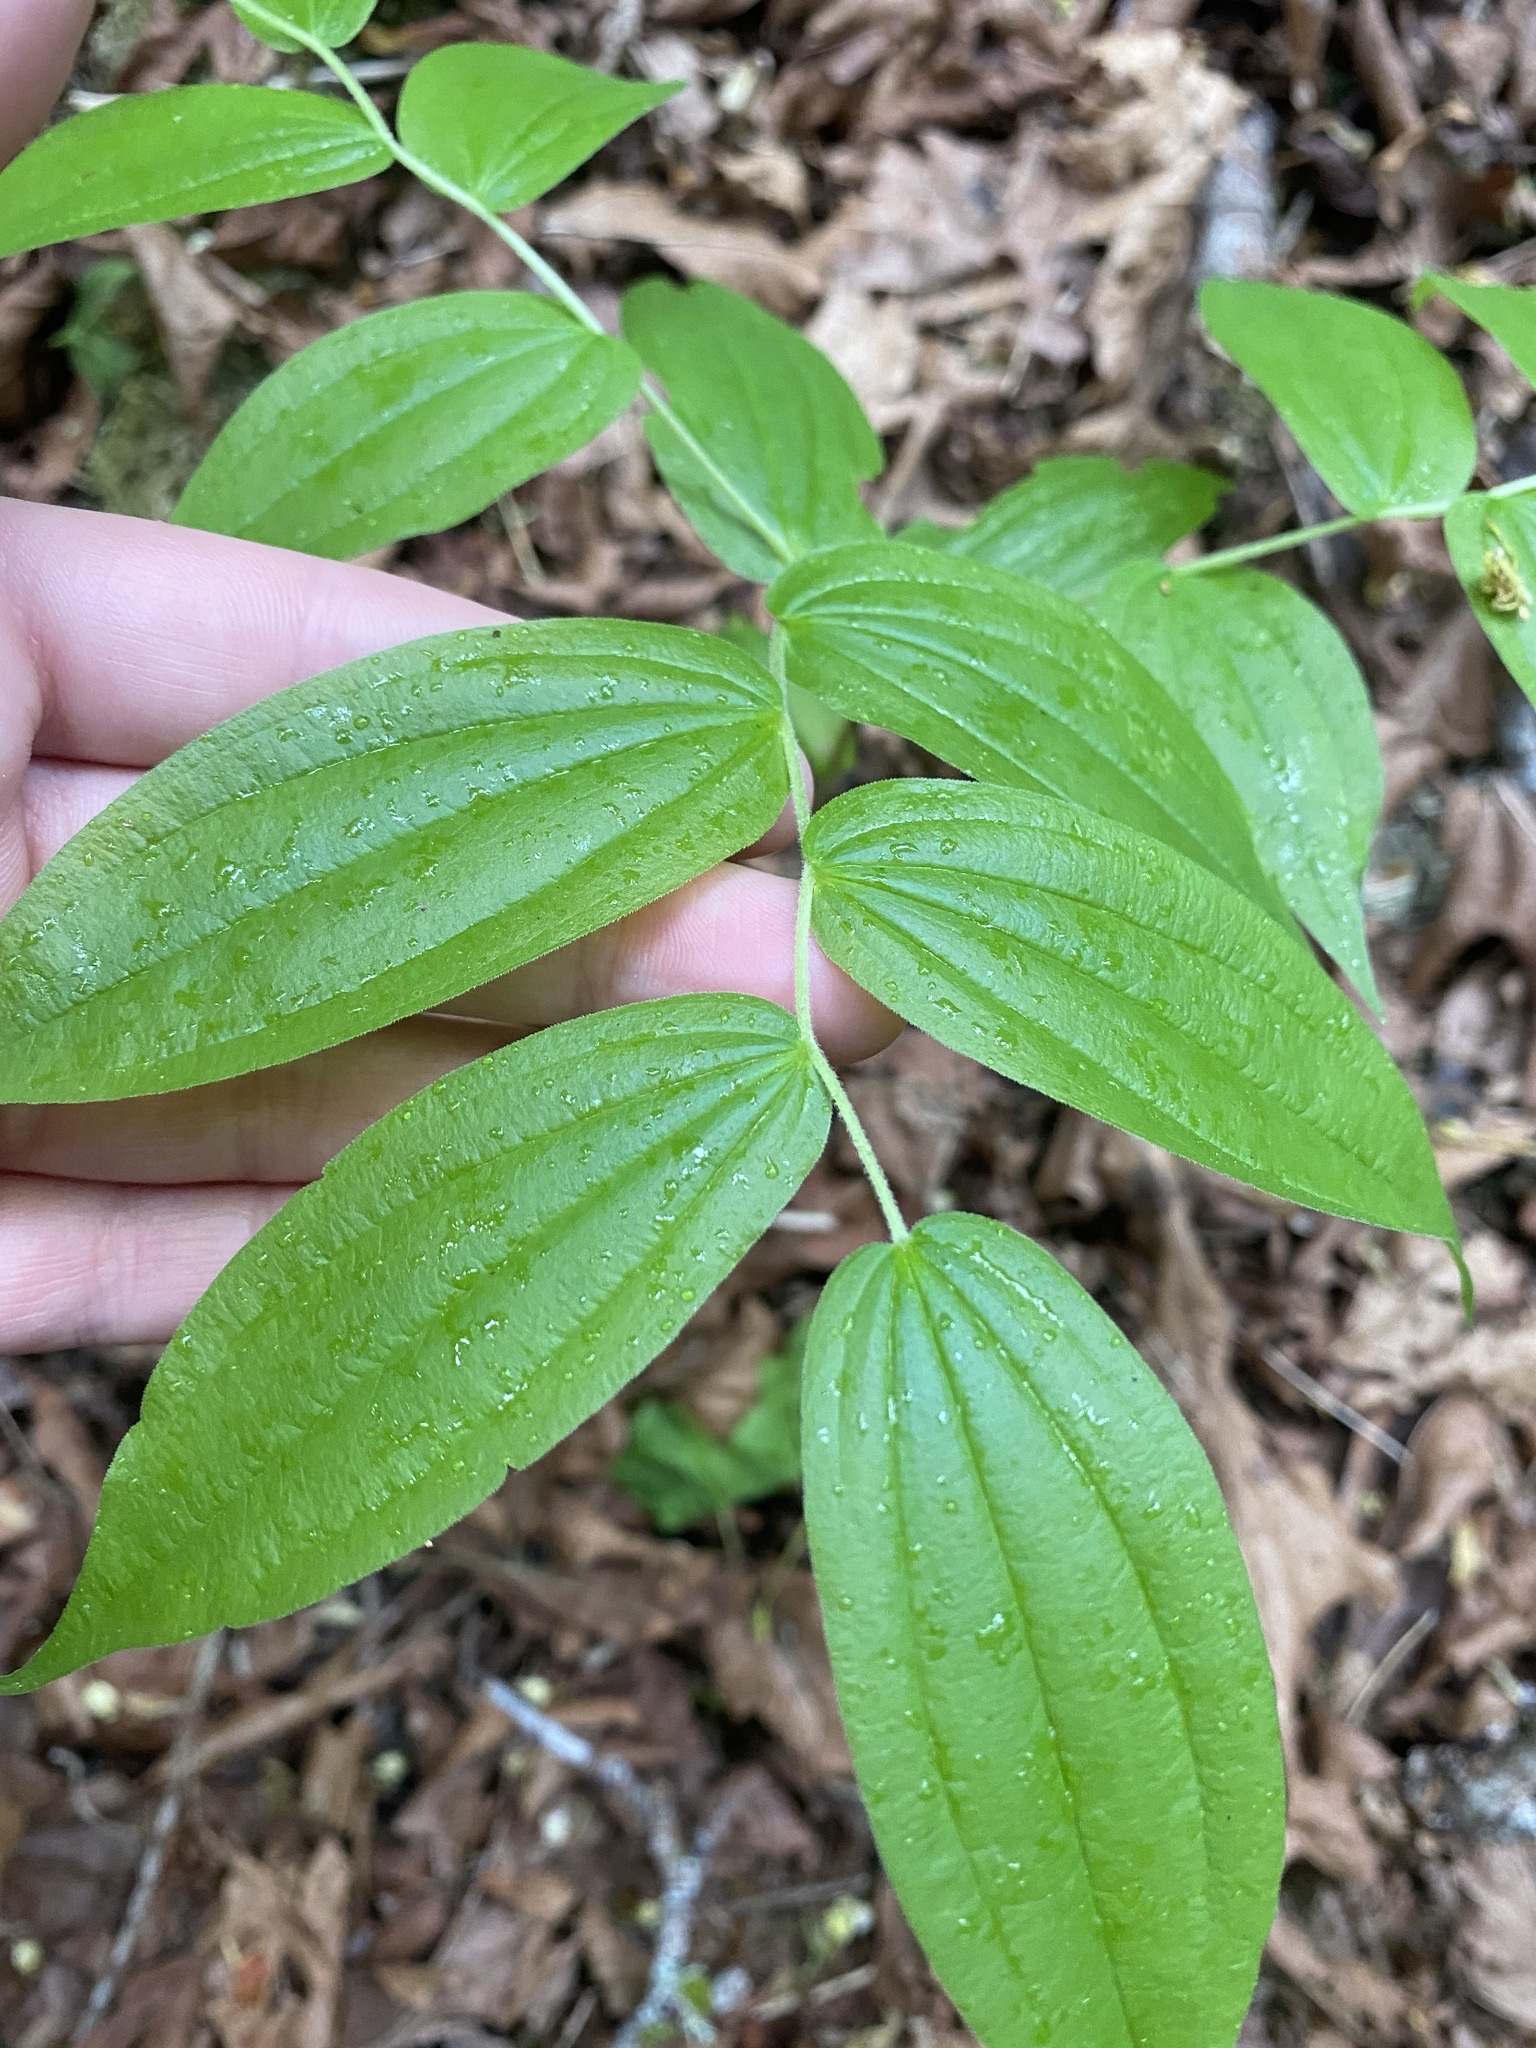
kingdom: Plantae
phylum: Tracheophyta
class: Liliopsida
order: Liliales
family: Liliaceae
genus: Prosartes
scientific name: Prosartes hookeri
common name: Fairy-bells
